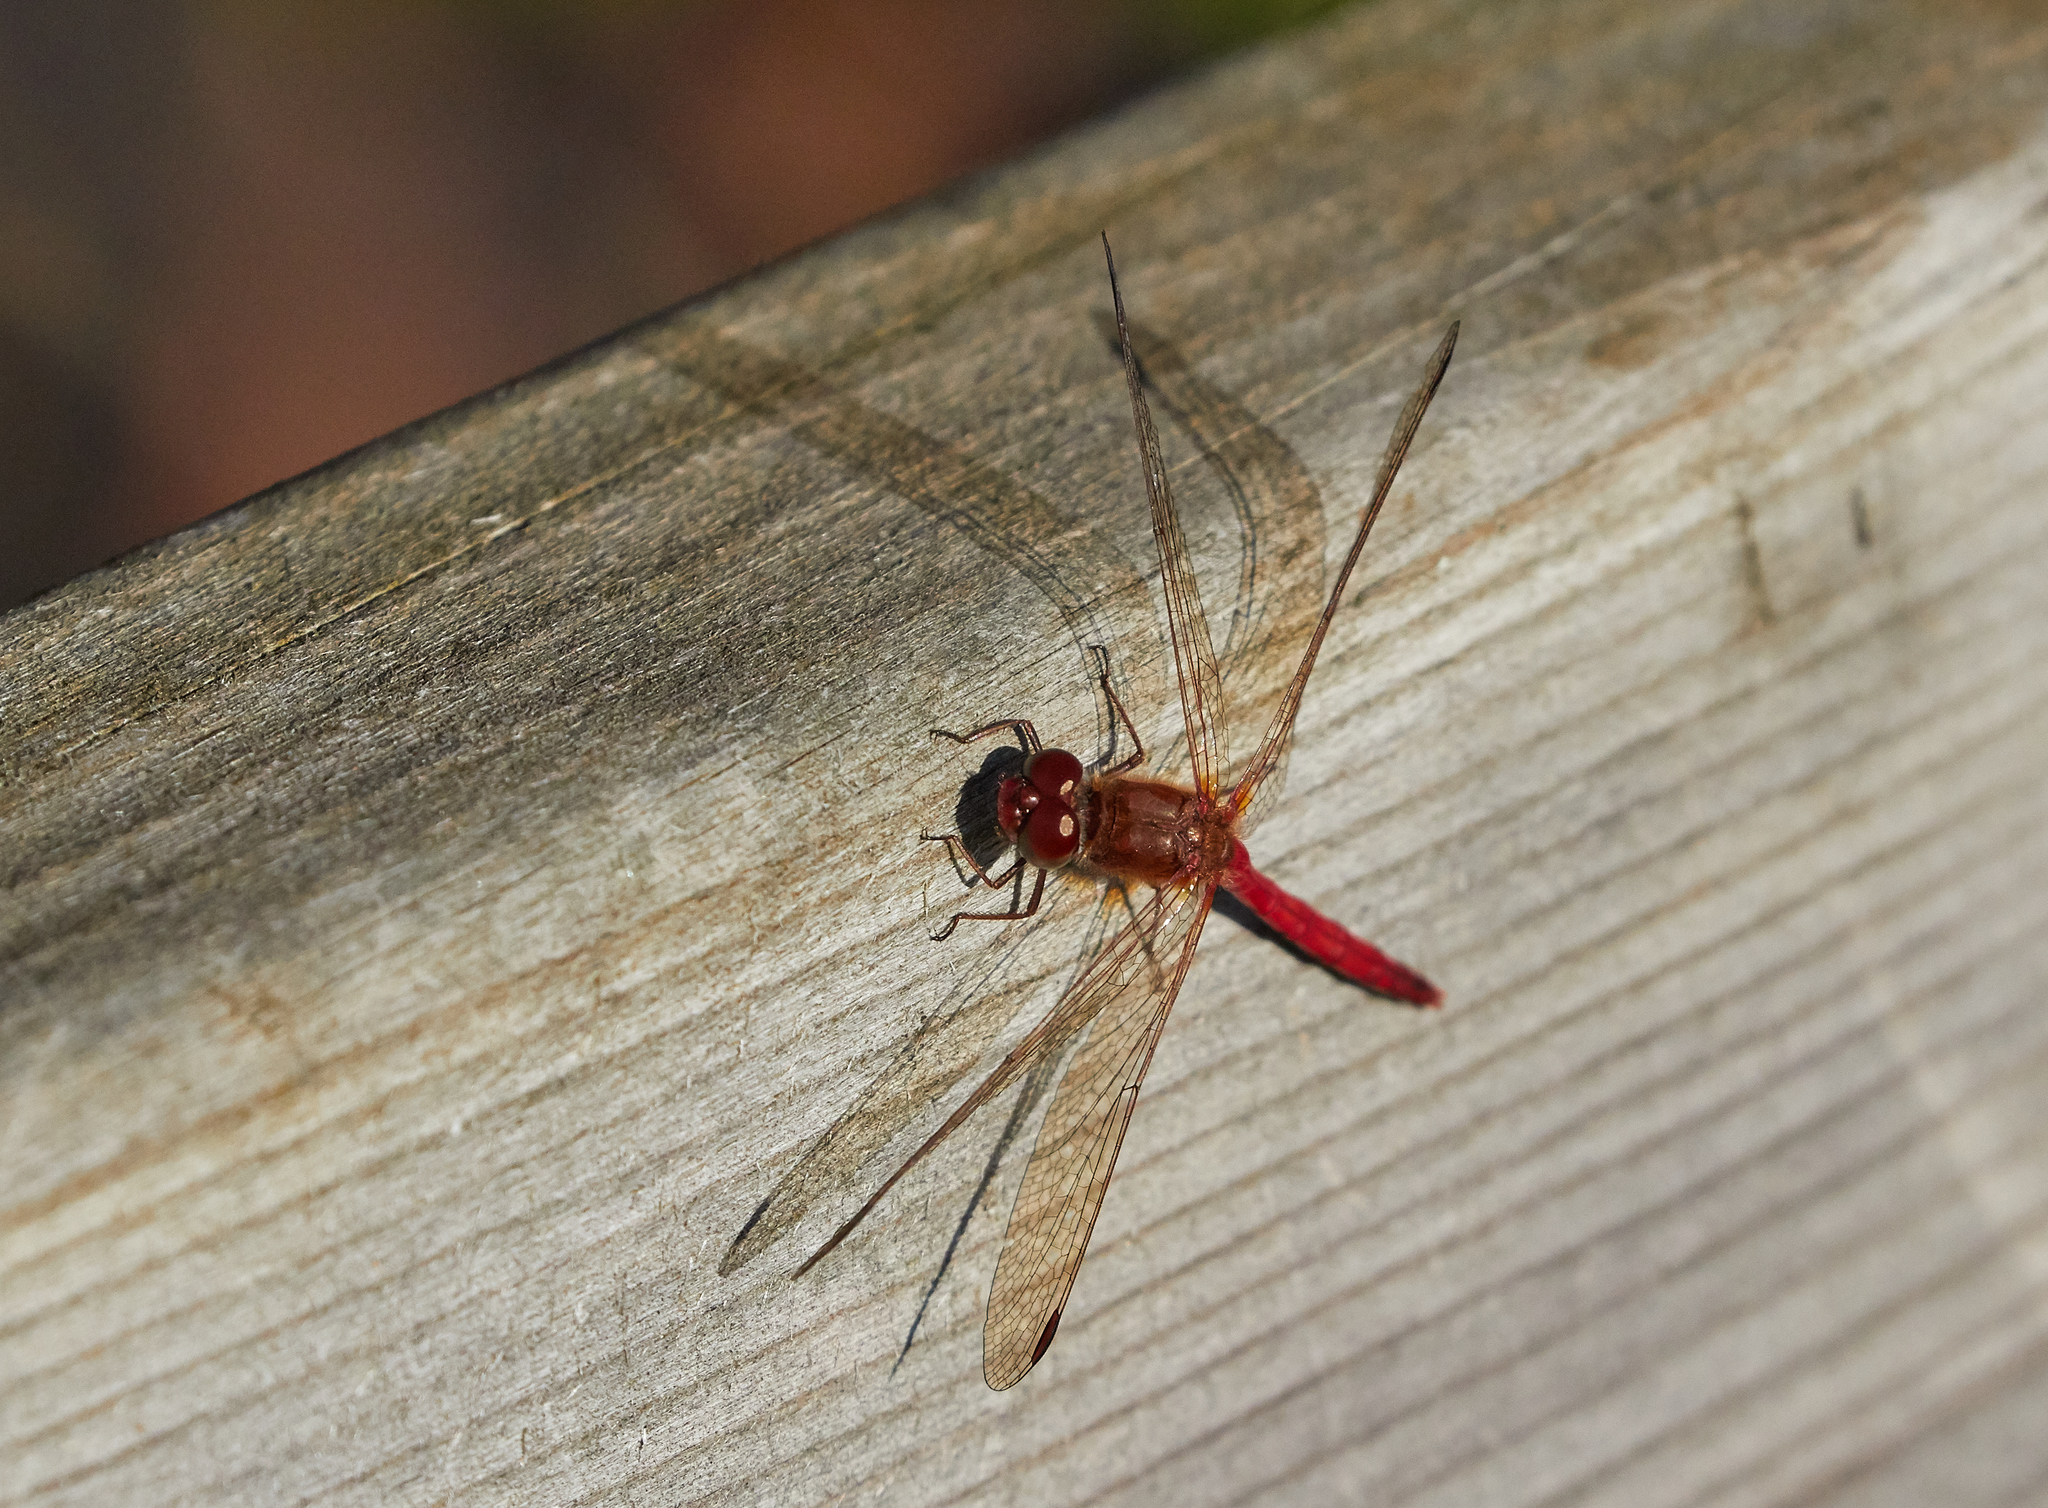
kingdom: Animalia
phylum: Arthropoda
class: Insecta
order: Odonata
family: Libellulidae
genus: Sympetrum
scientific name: Sympetrum vicinum
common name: Autumn meadowhawk
